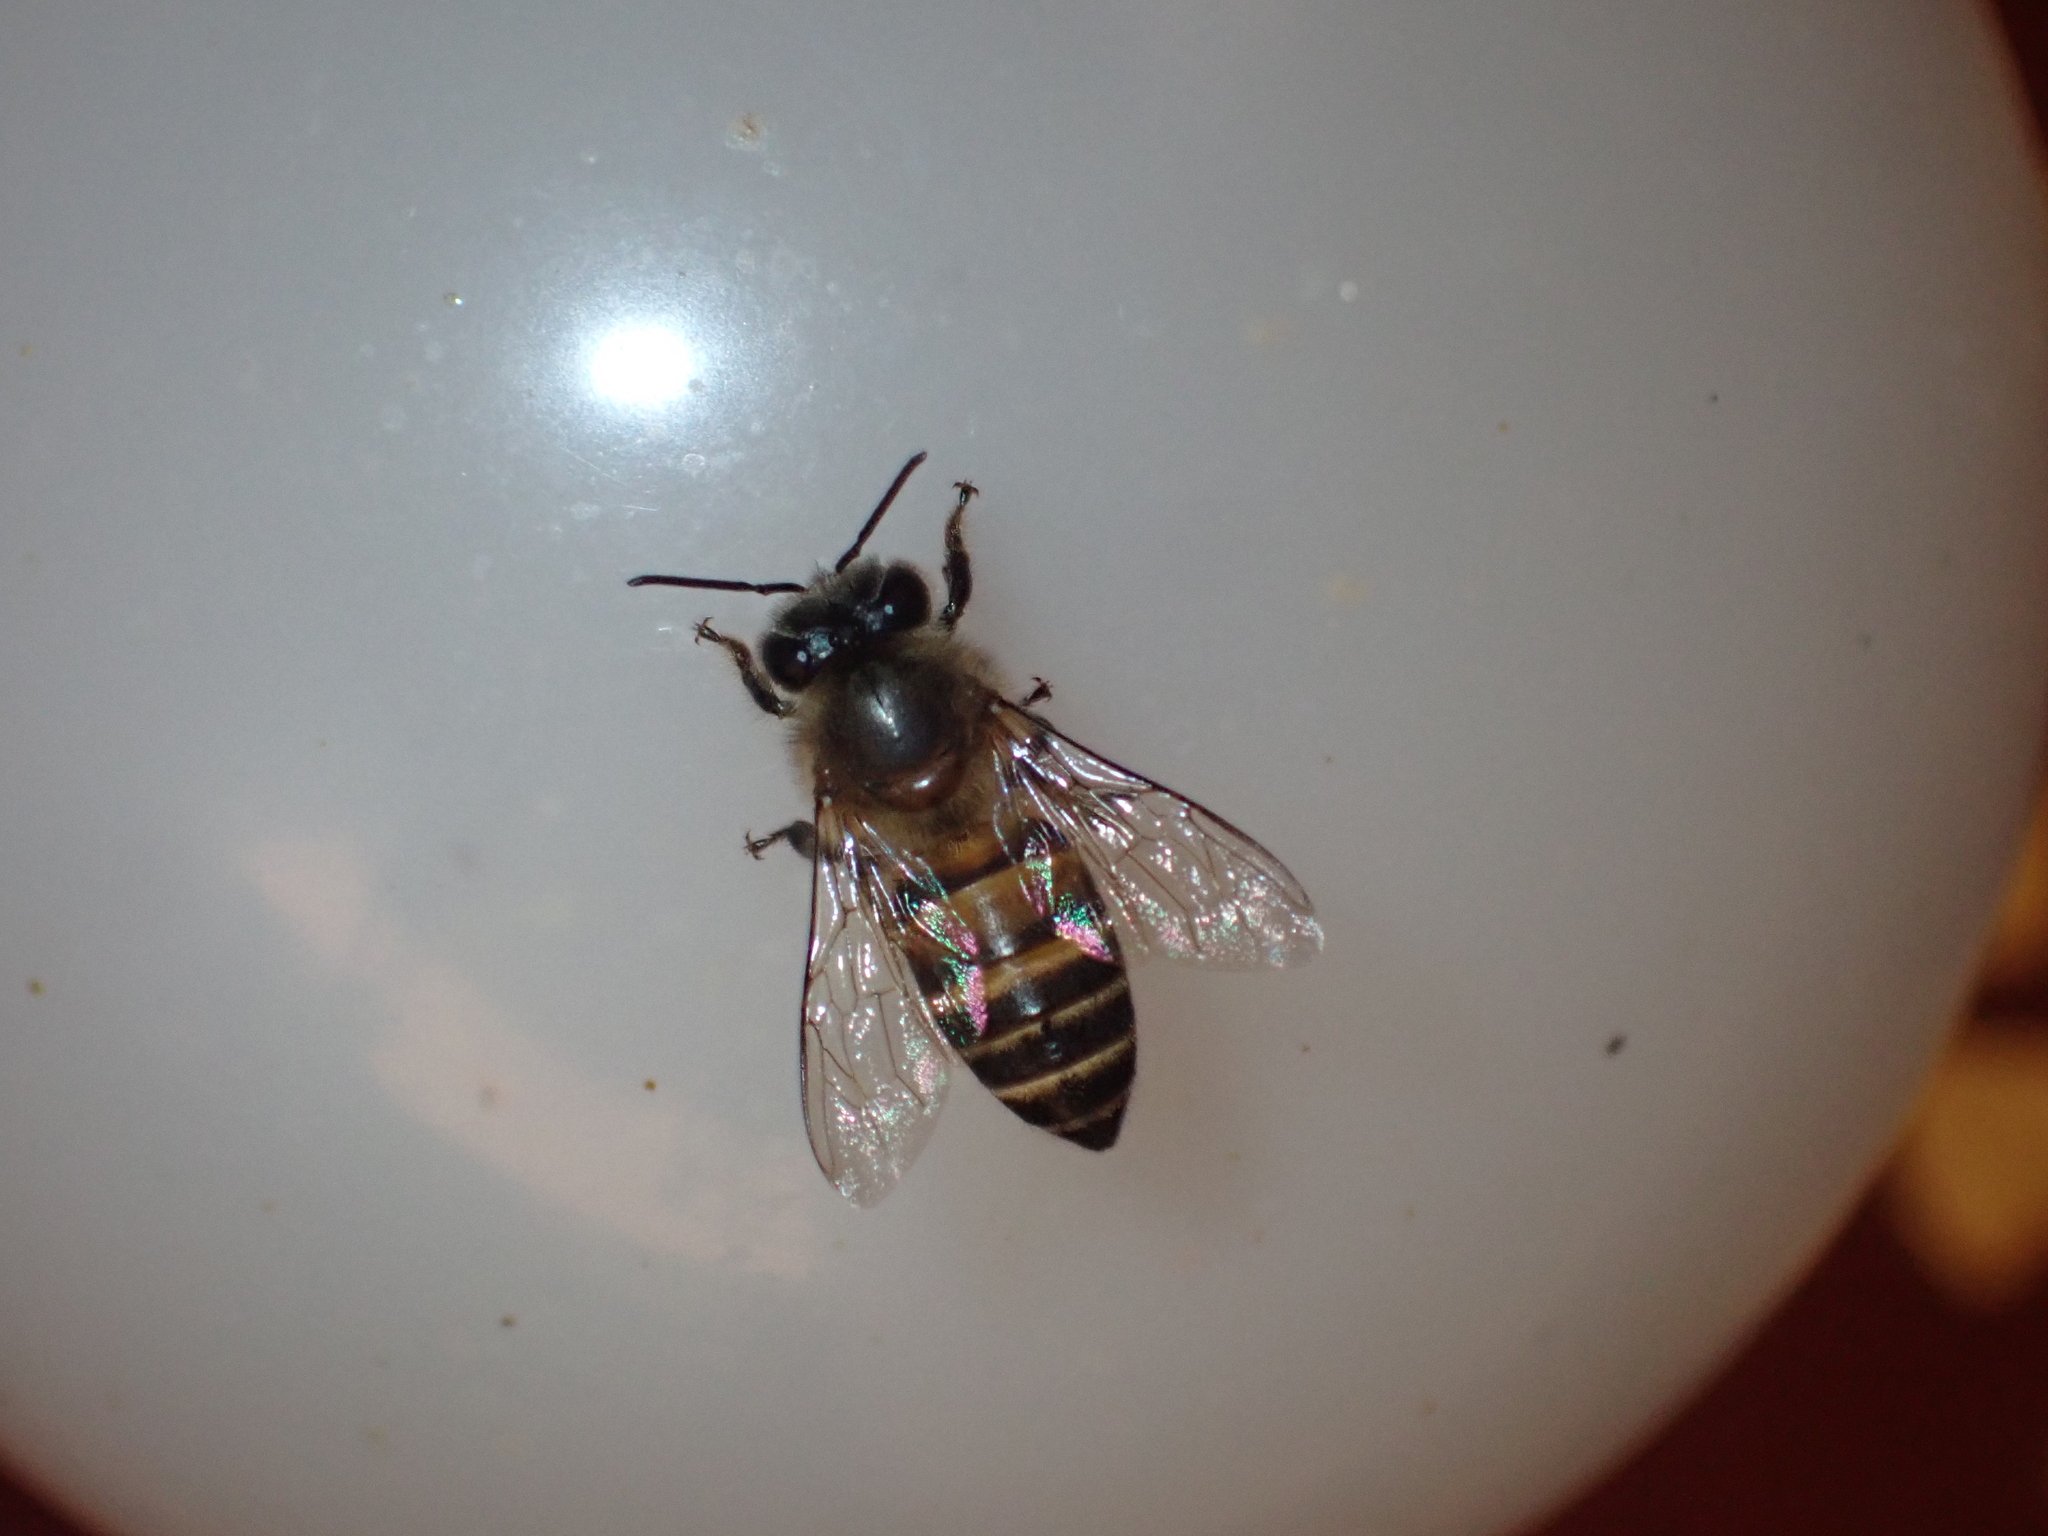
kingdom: Animalia
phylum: Arthropoda
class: Insecta
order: Hymenoptera
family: Apidae
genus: Apis
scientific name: Apis cerana
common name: Honey bee
